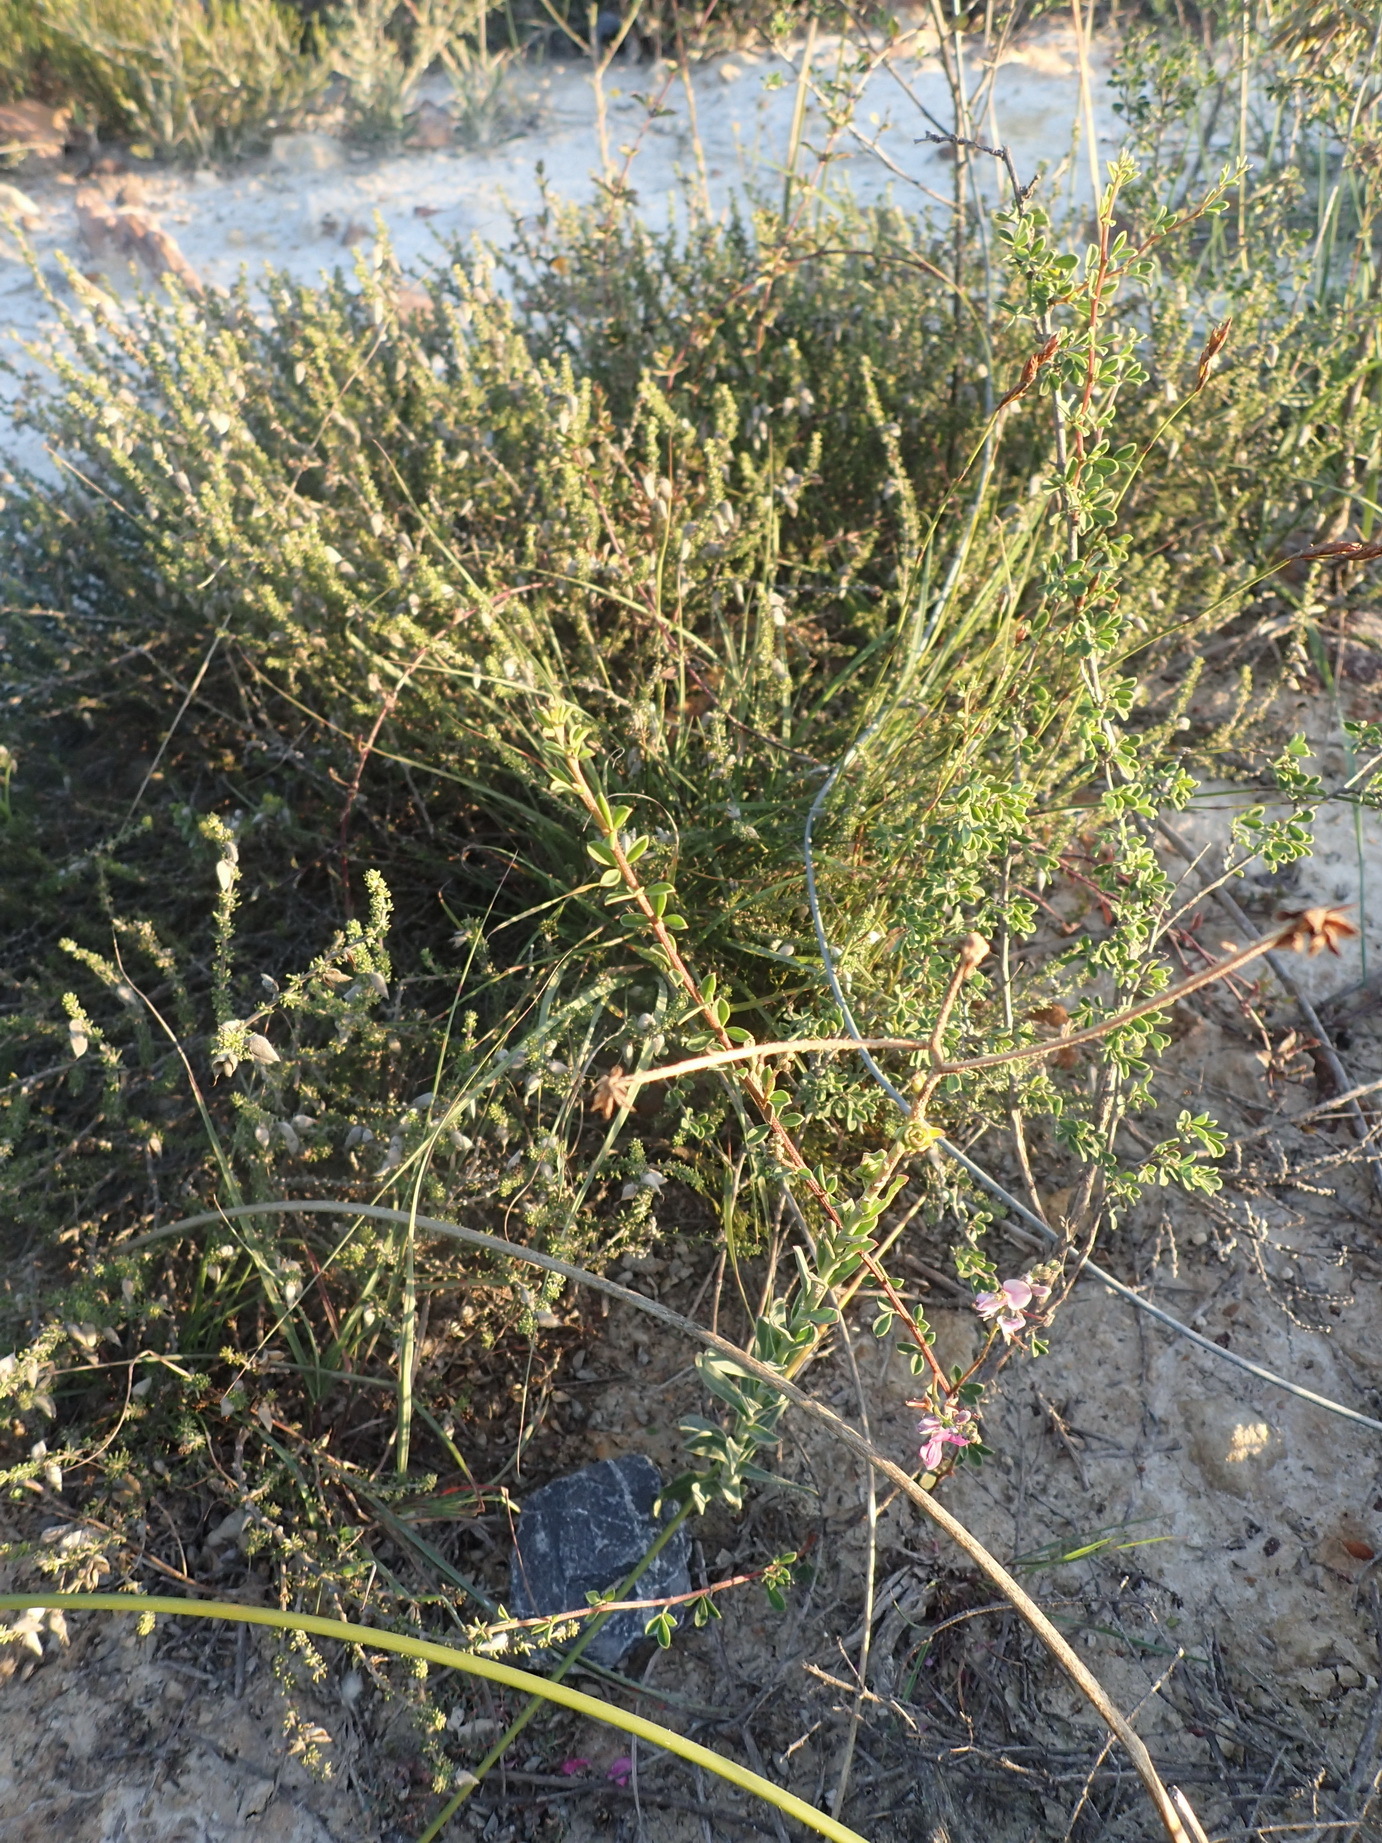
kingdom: Plantae
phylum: Tracheophyta
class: Magnoliopsida
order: Fabales
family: Fabaceae
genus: Indigofera
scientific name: Indigofera denudata
